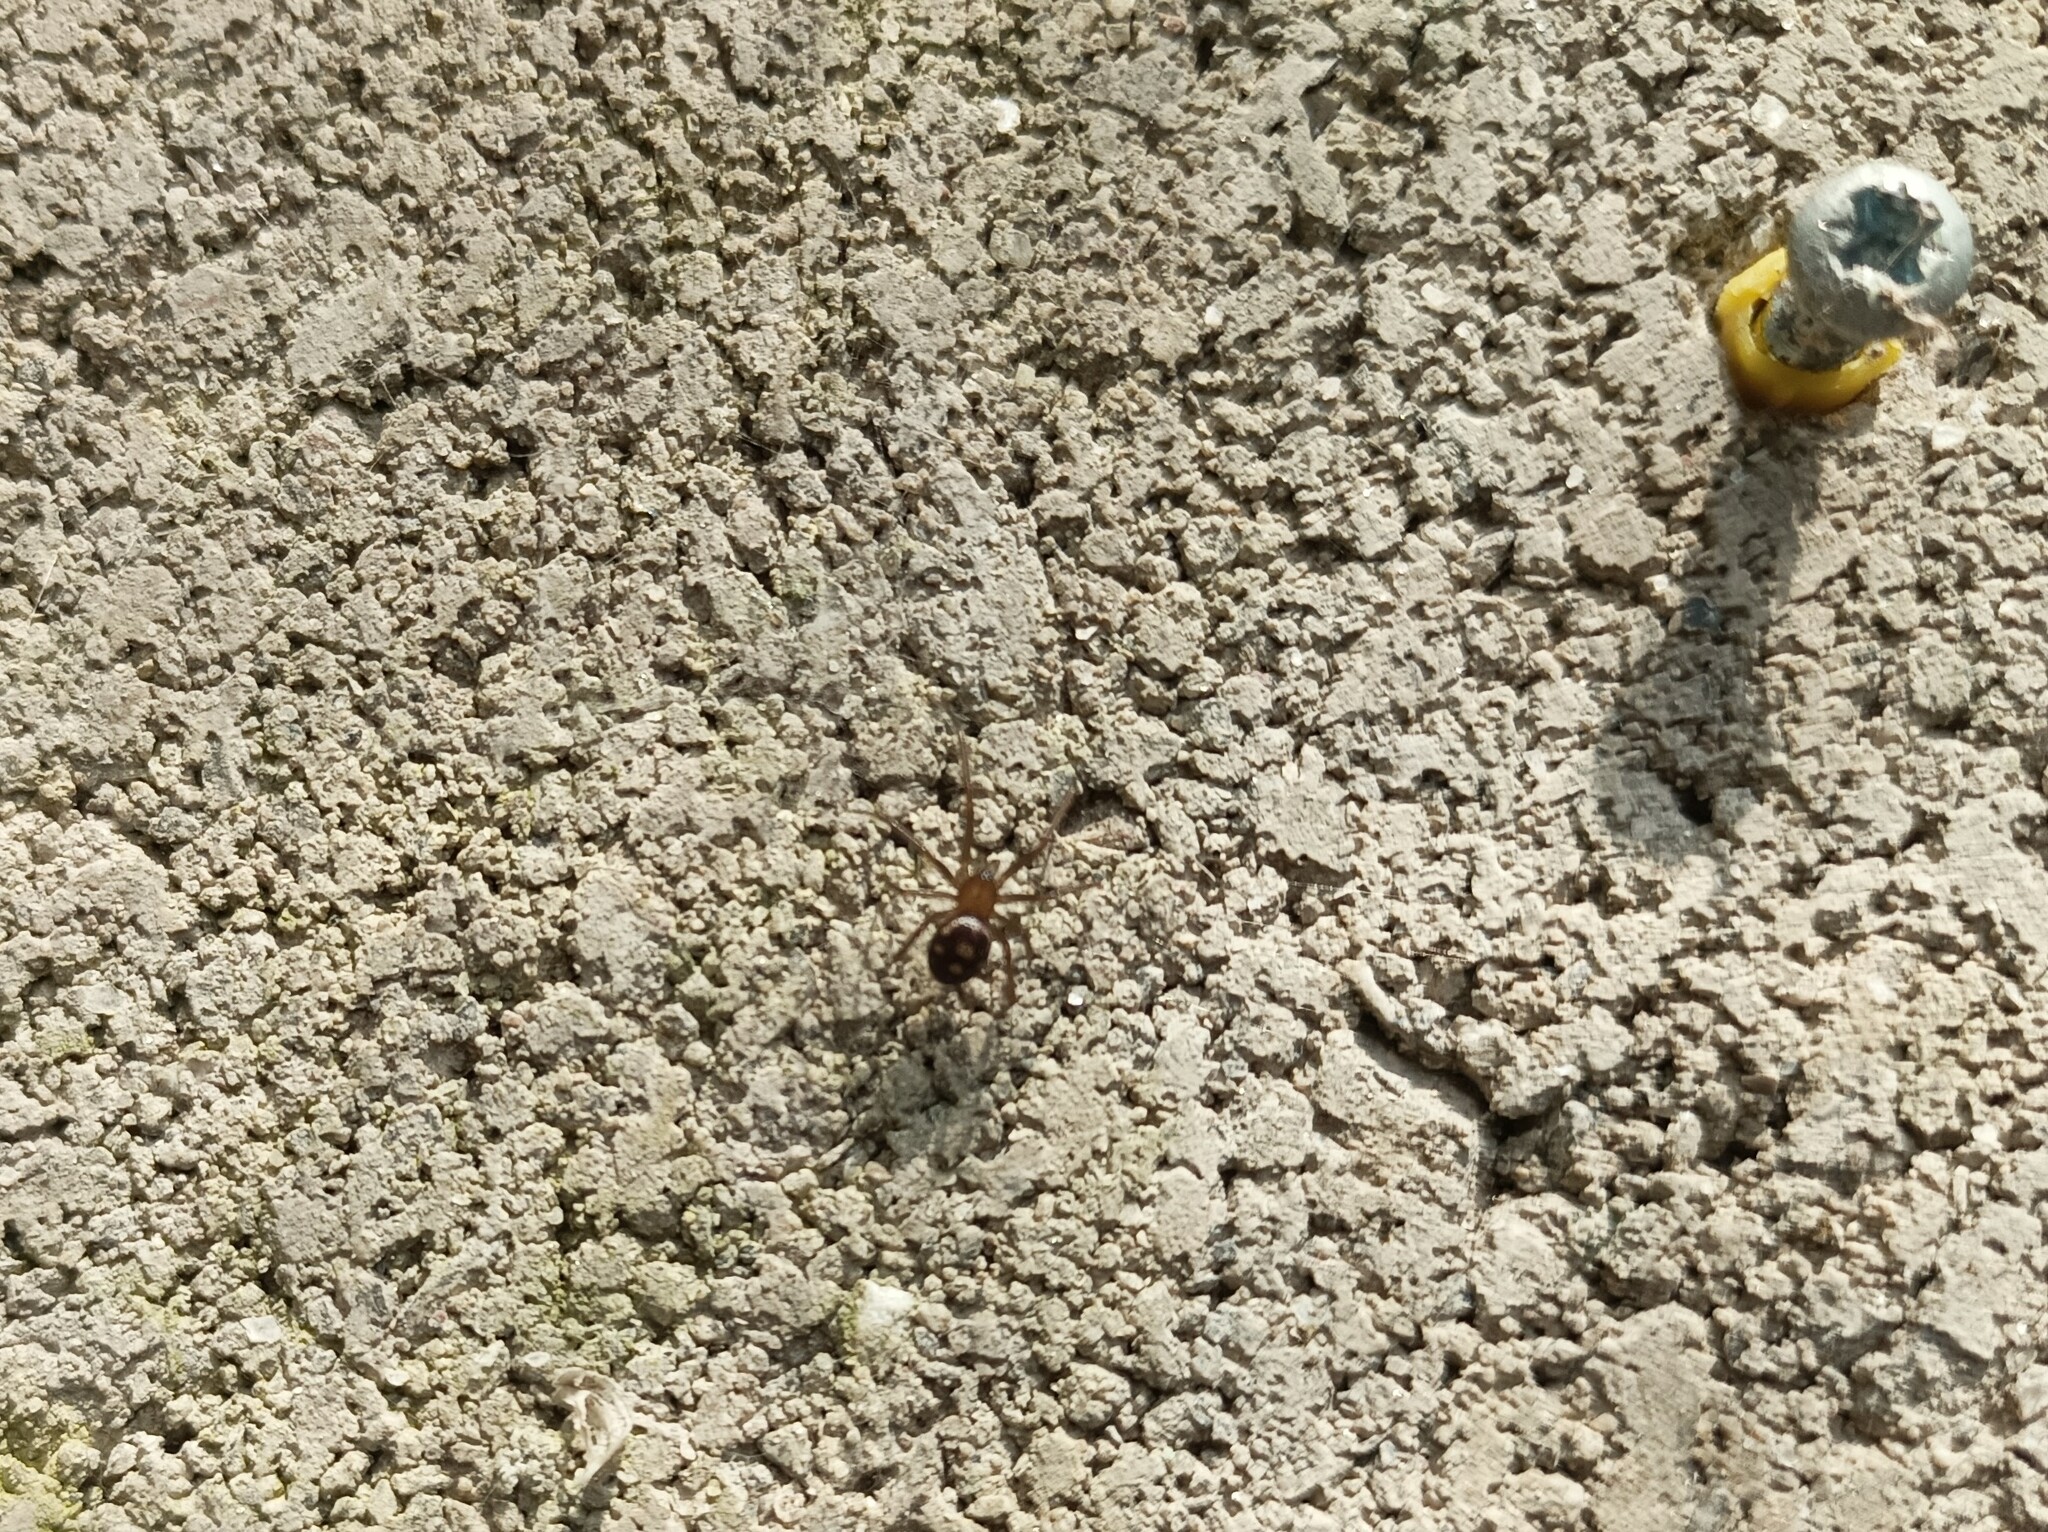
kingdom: Animalia
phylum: Arthropoda
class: Arachnida
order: Araneae
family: Theridiidae
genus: Steatoda
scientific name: Steatoda grossa
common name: False black widow
